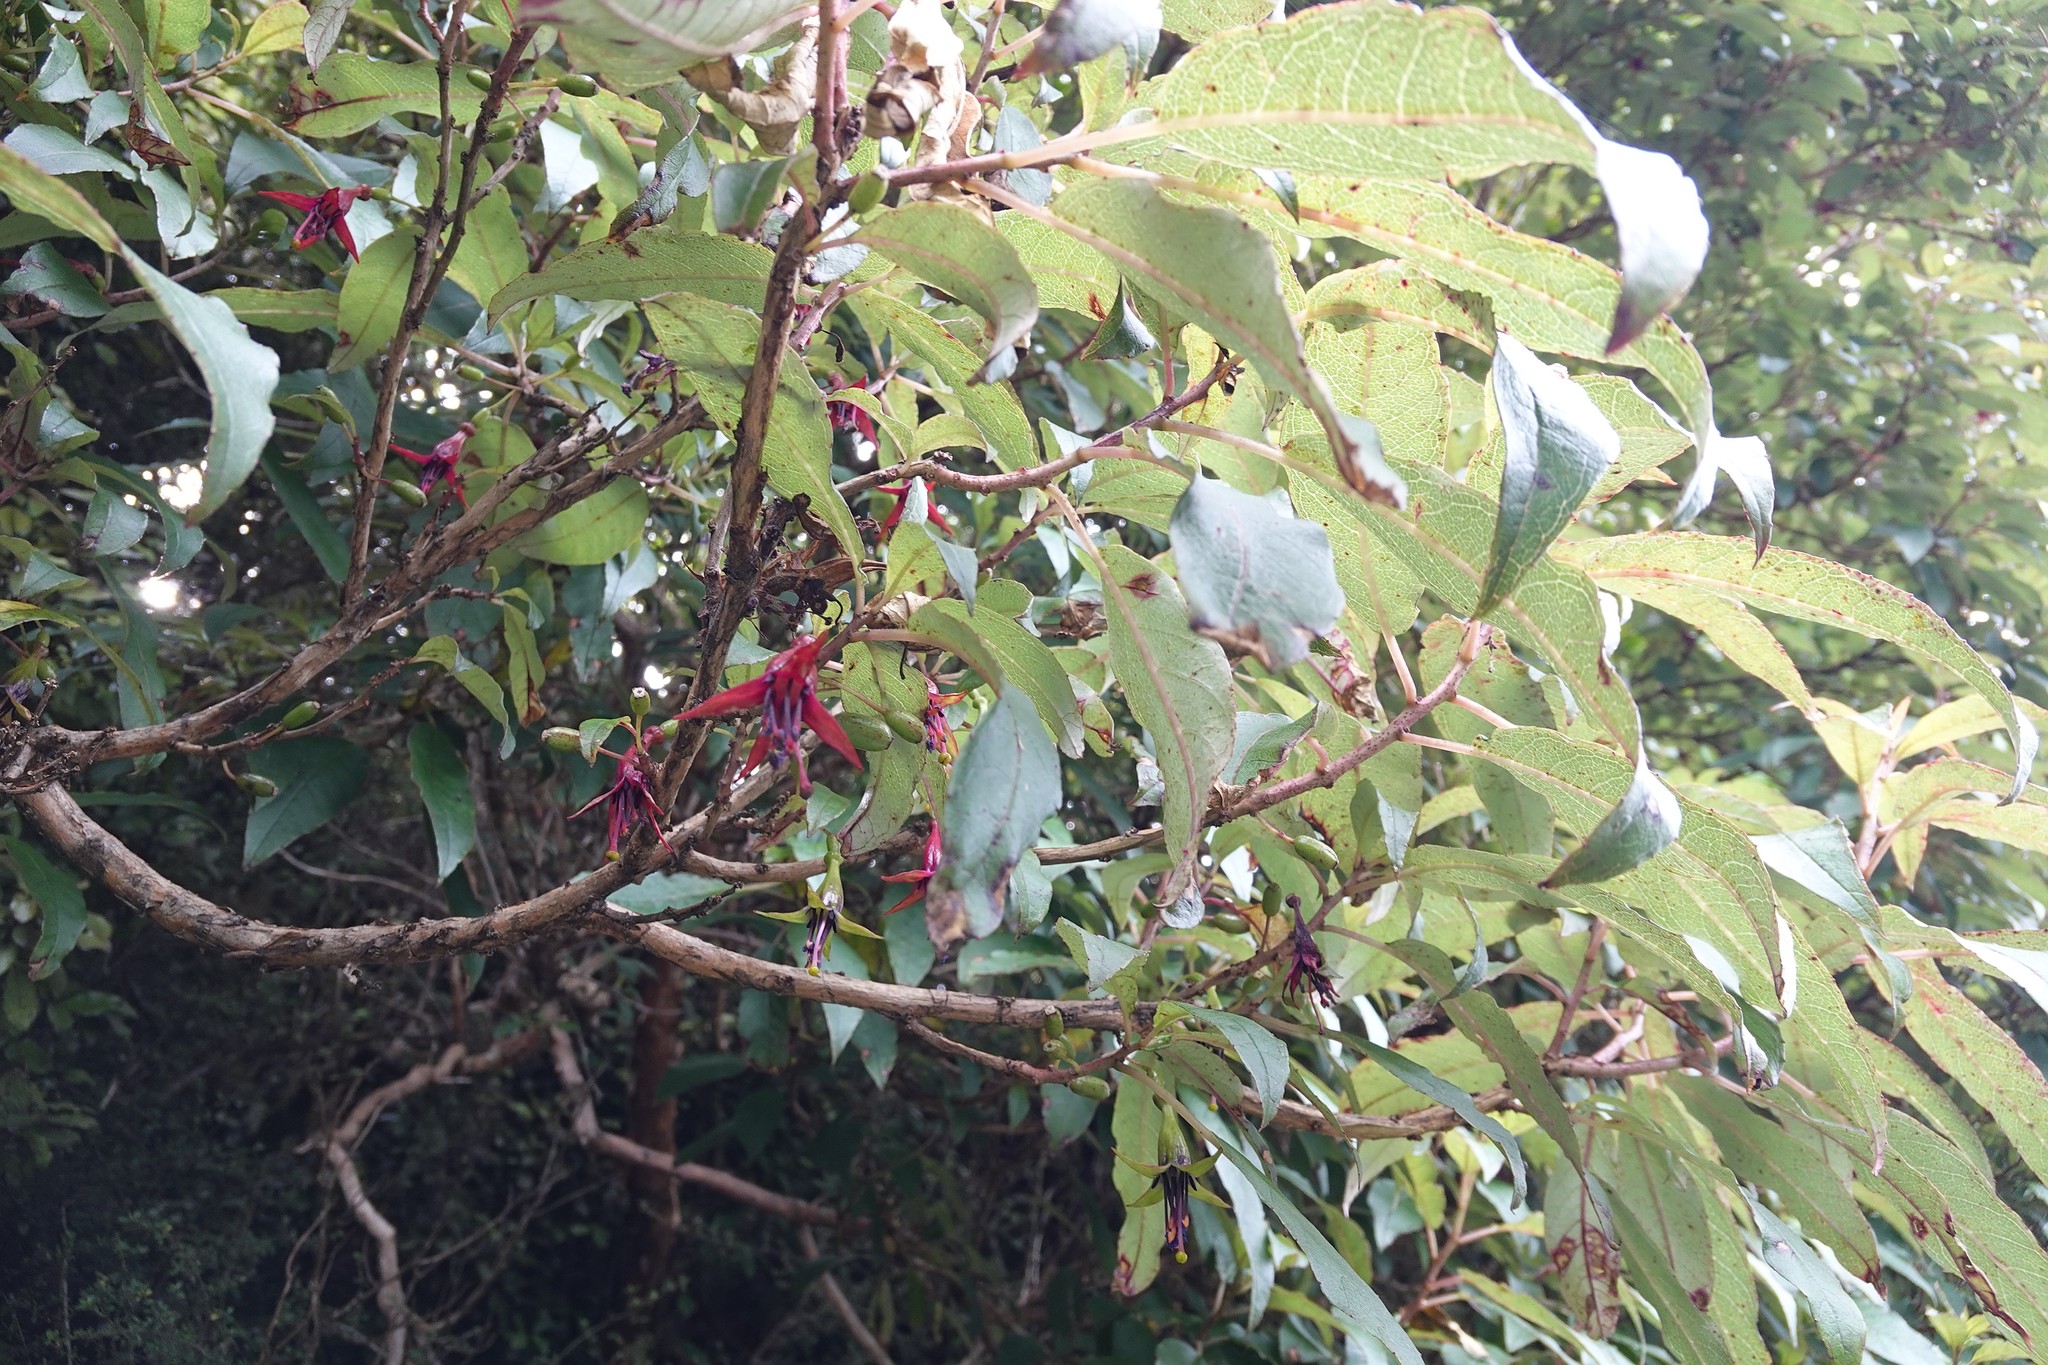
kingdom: Plantae
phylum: Tracheophyta
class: Magnoliopsida
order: Myrtales
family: Onagraceae
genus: Fuchsia
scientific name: Fuchsia excorticata
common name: Tree fuchsia
